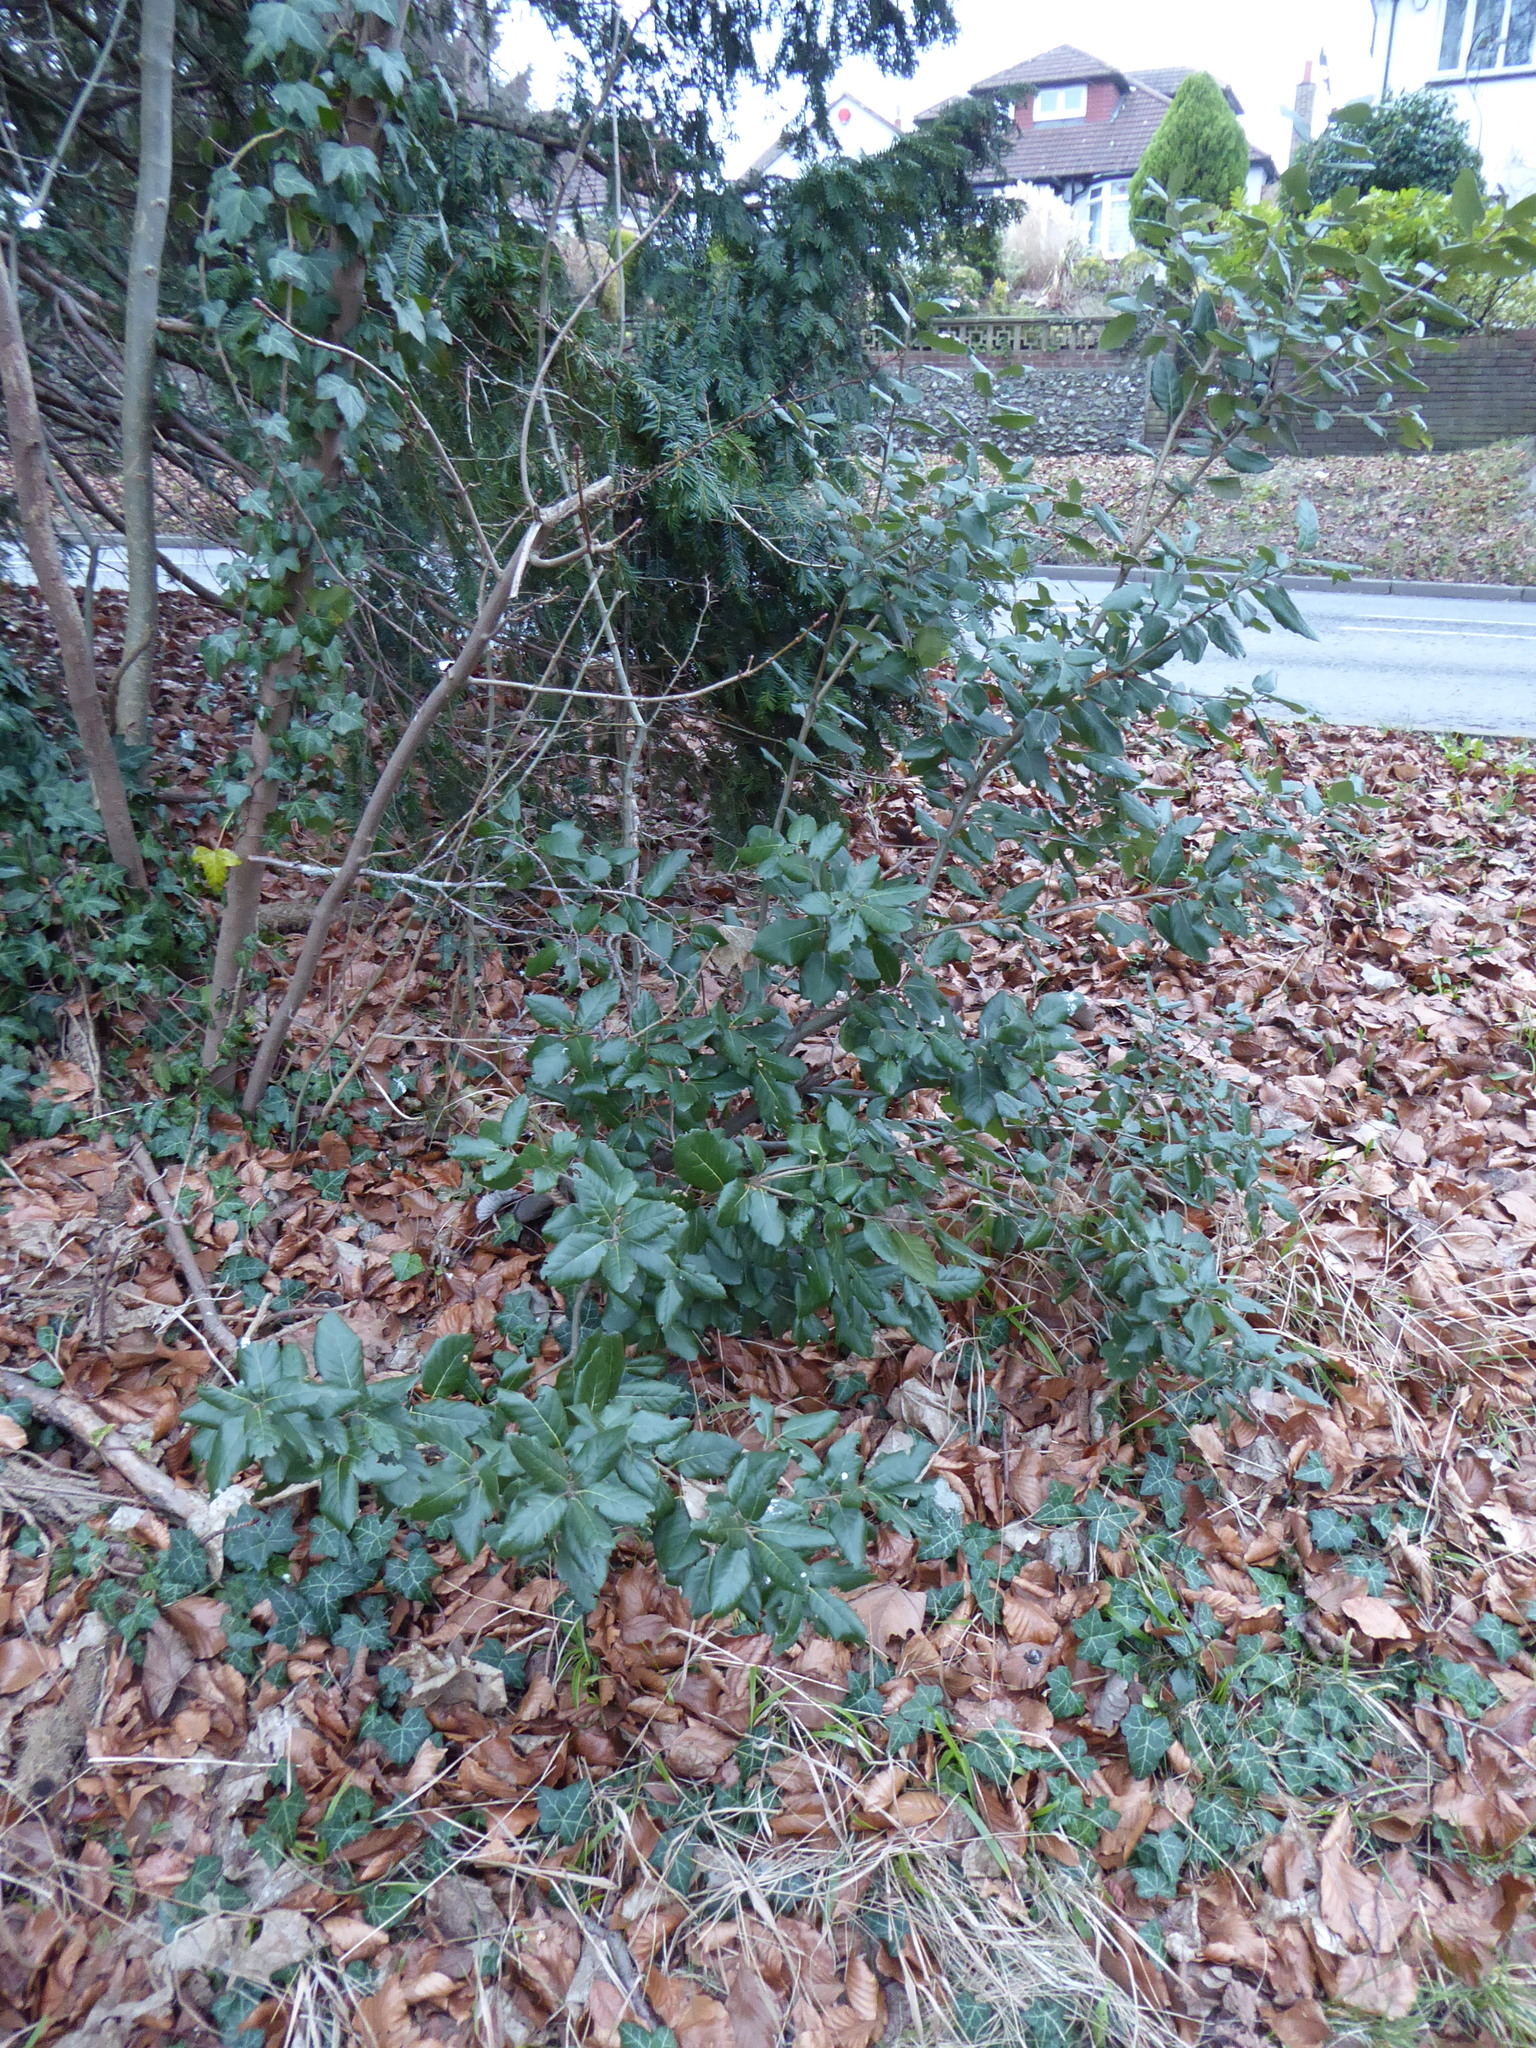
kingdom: Plantae
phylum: Tracheophyta
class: Magnoliopsida
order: Fagales
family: Fagaceae
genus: Quercus
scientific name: Quercus ilex
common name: Evergreen oak
